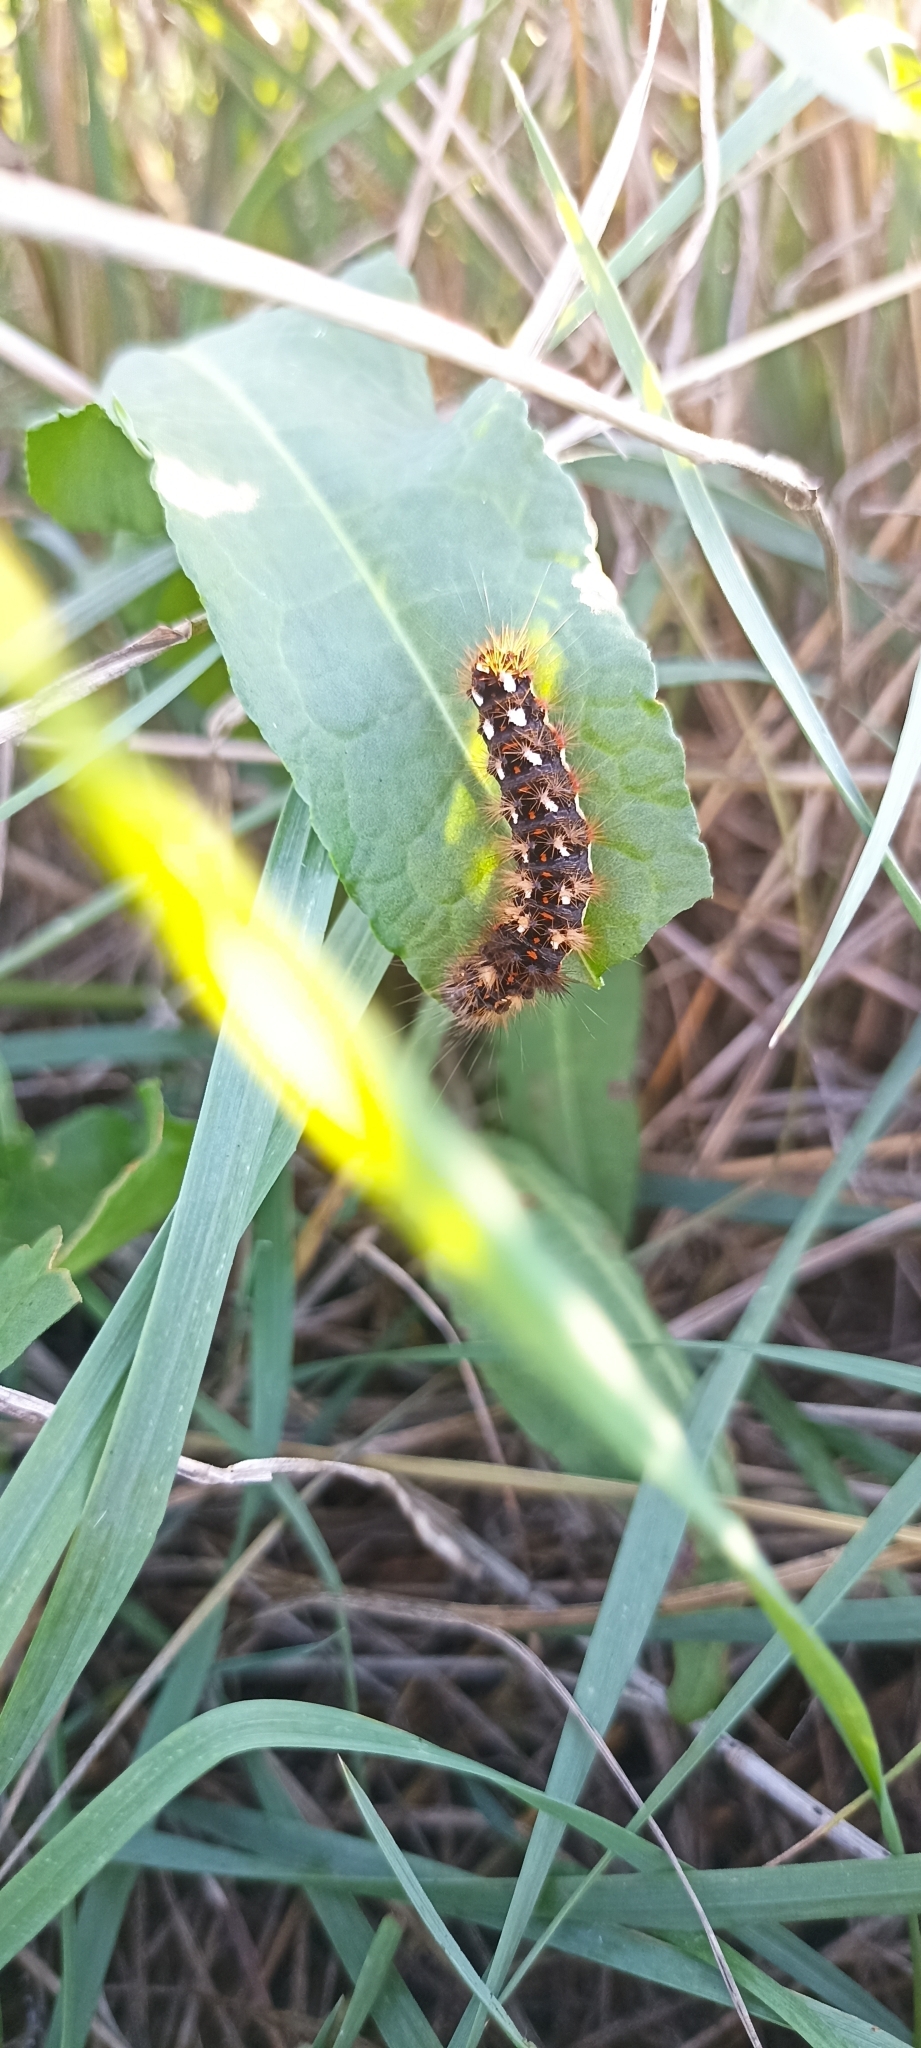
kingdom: Animalia
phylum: Arthropoda
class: Insecta
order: Lepidoptera
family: Noctuidae
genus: Acronicta
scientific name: Acronicta rumicis
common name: Knot grass
